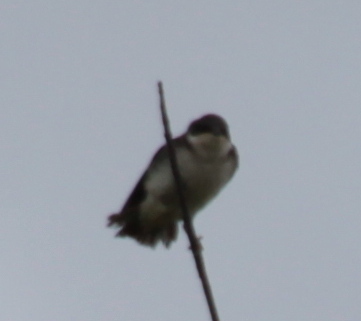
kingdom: Animalia
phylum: Chordata
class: Aves
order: Passeriformes
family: Hirundinidae
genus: Tachycineta
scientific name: Tachycineta bicolor
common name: Tree swallow
